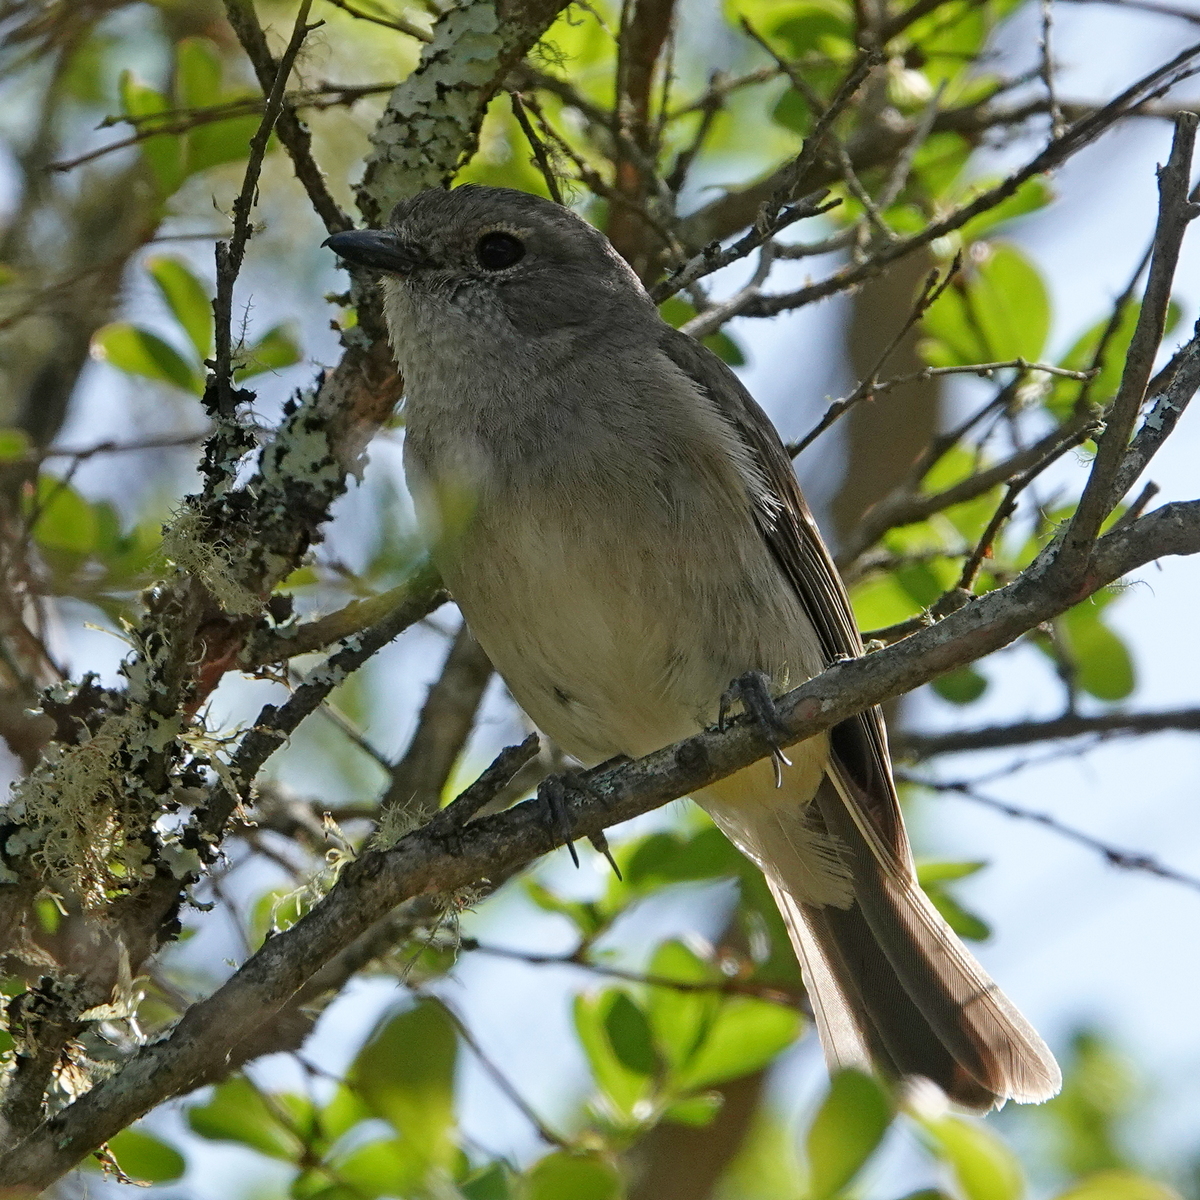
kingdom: Animalia
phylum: Chordata
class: Aves
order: Passeriformes
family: Pachycephalidae
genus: Pachycephala
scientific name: Pachycephala pectoralis
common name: Australian golden whistler
